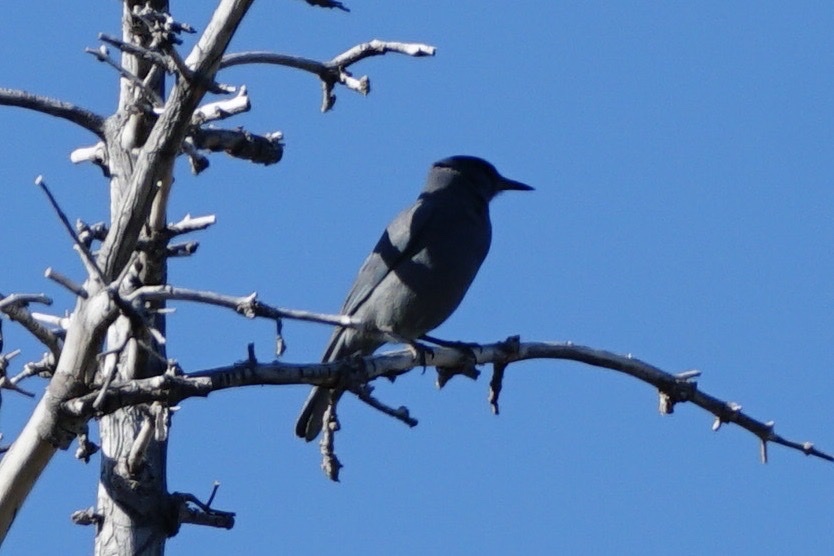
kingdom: Animalia
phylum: Chordata
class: Aves
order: Passeriformes
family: Corvidae
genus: Gymnorhinus
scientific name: Gymnorhinus cyanocephalus
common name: Pinyon jay
